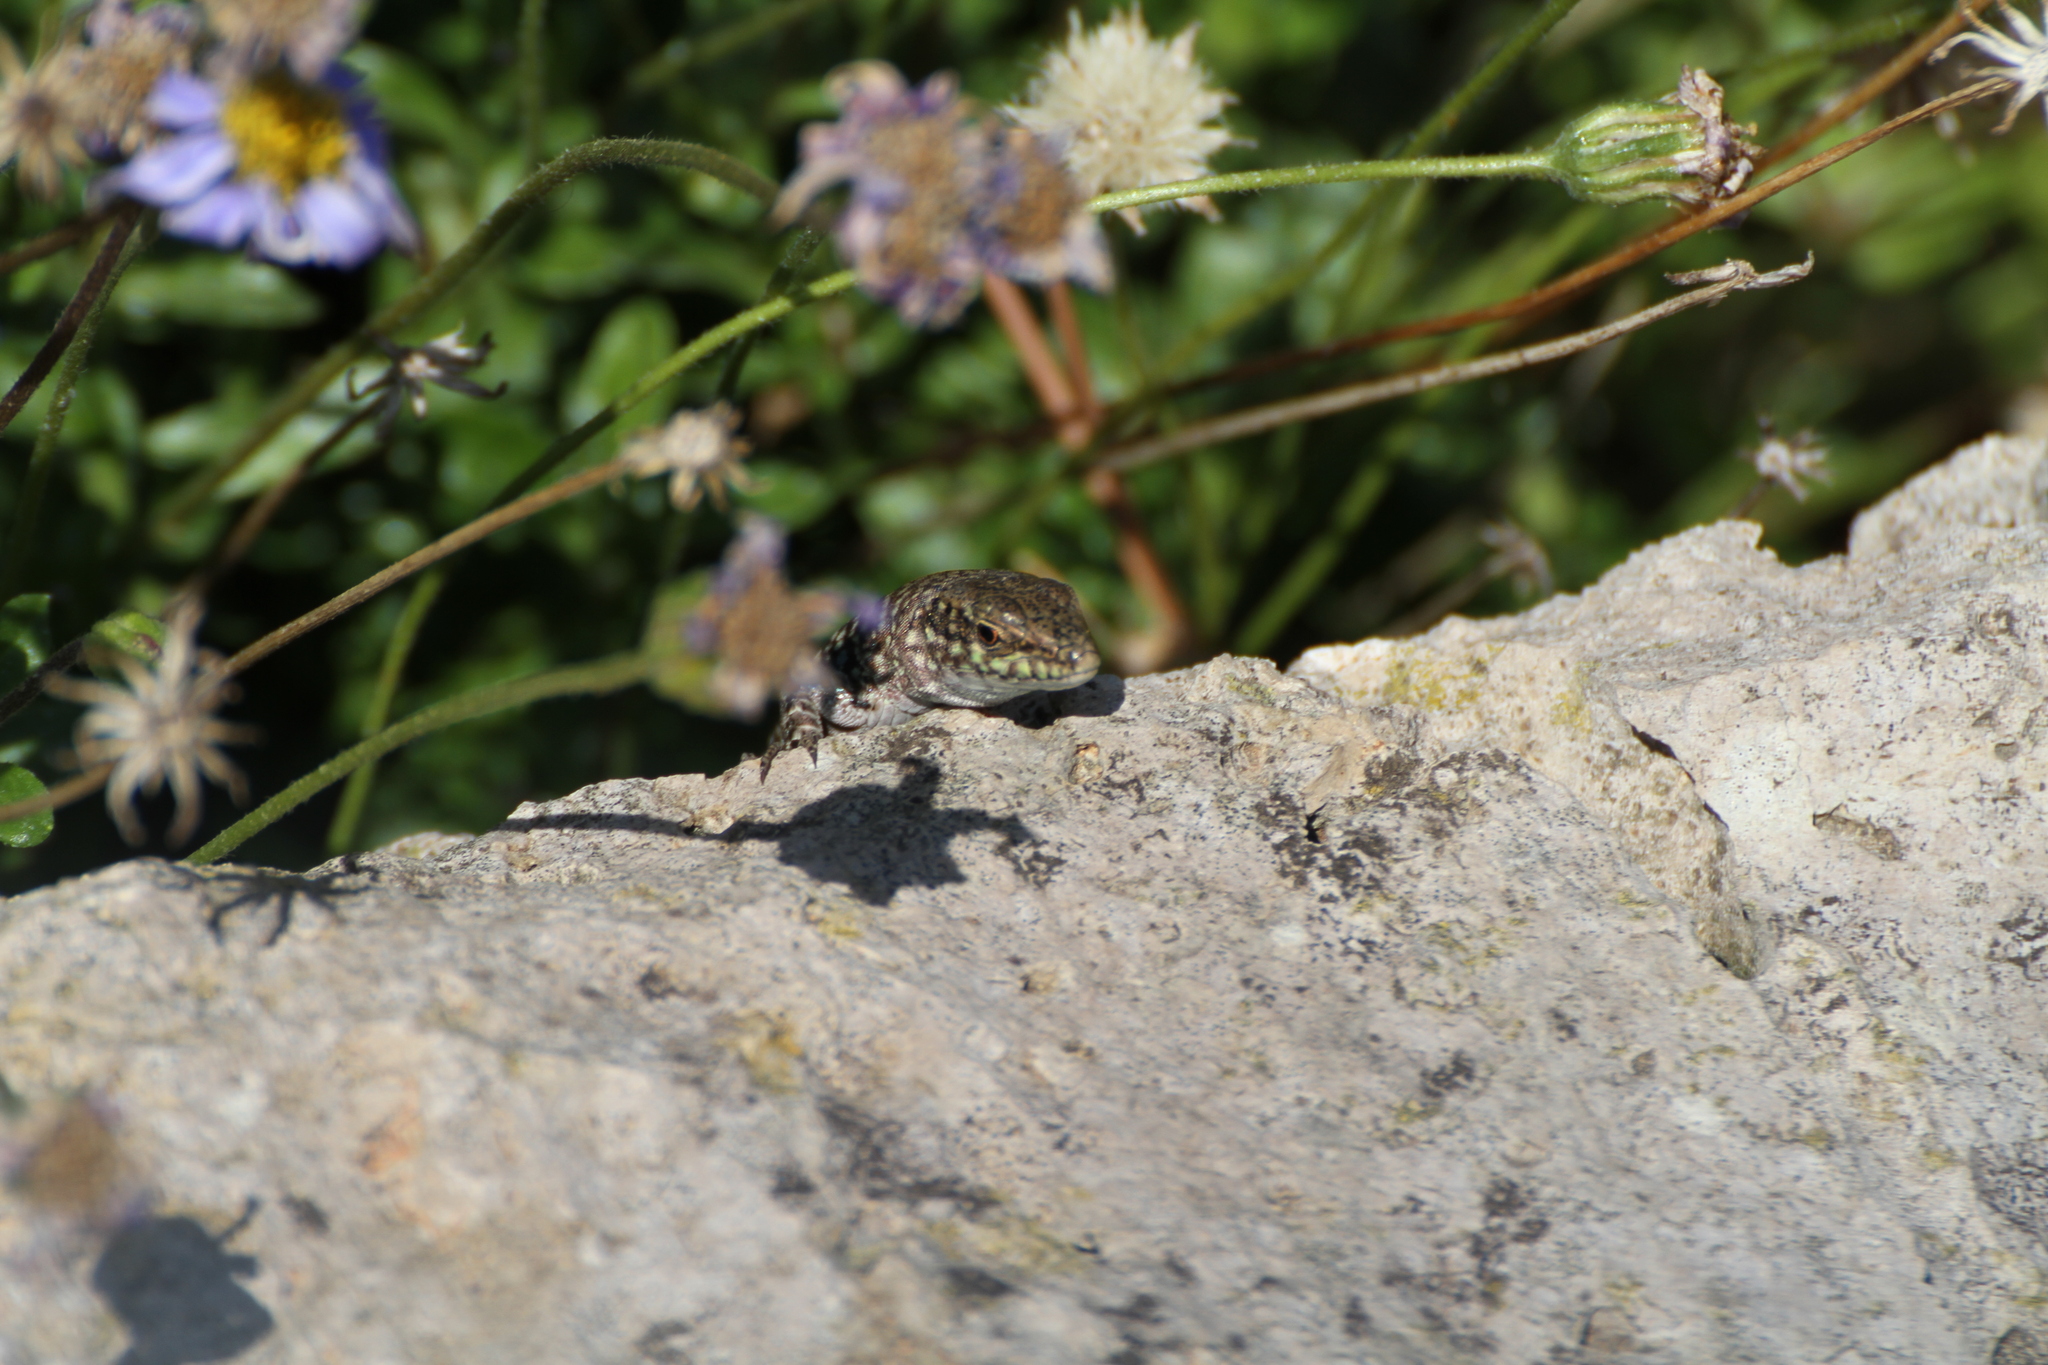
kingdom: Animalia
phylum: Chordata
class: Squamata
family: Lacertidae
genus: Podarcis
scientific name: Podarcis siculus
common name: Italian wall lizard
